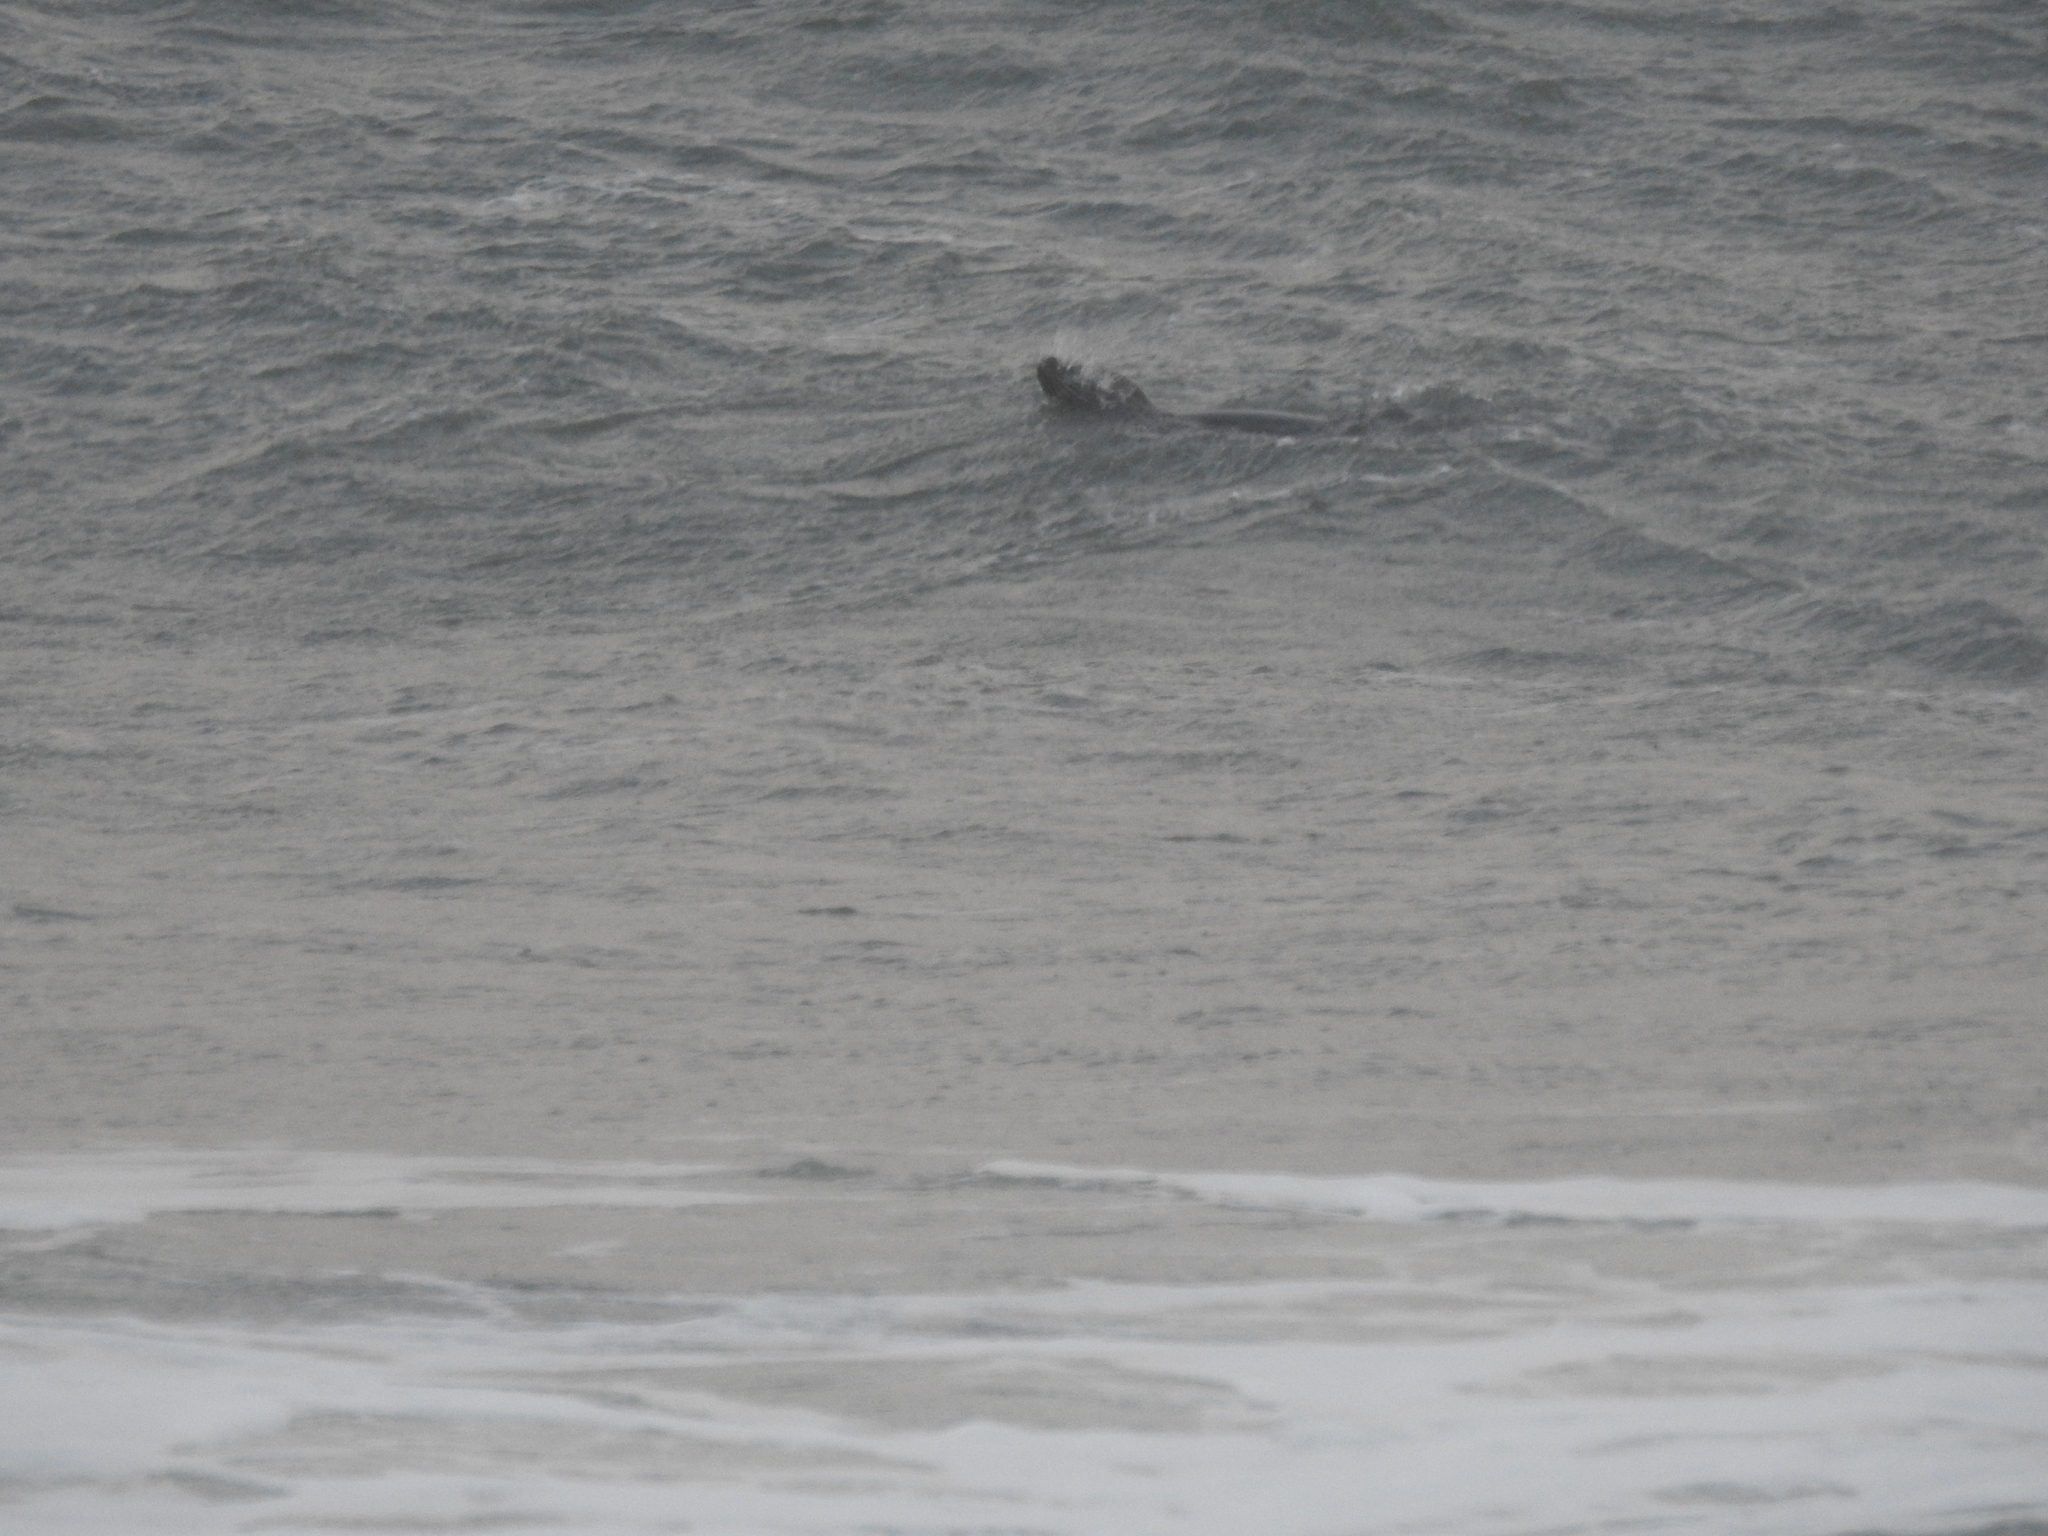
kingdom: Animalia
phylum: Chordata
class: Mammalia
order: Carnivora
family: Phocidae
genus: Phoca
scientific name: Phoca vitulina
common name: Harbor seal
